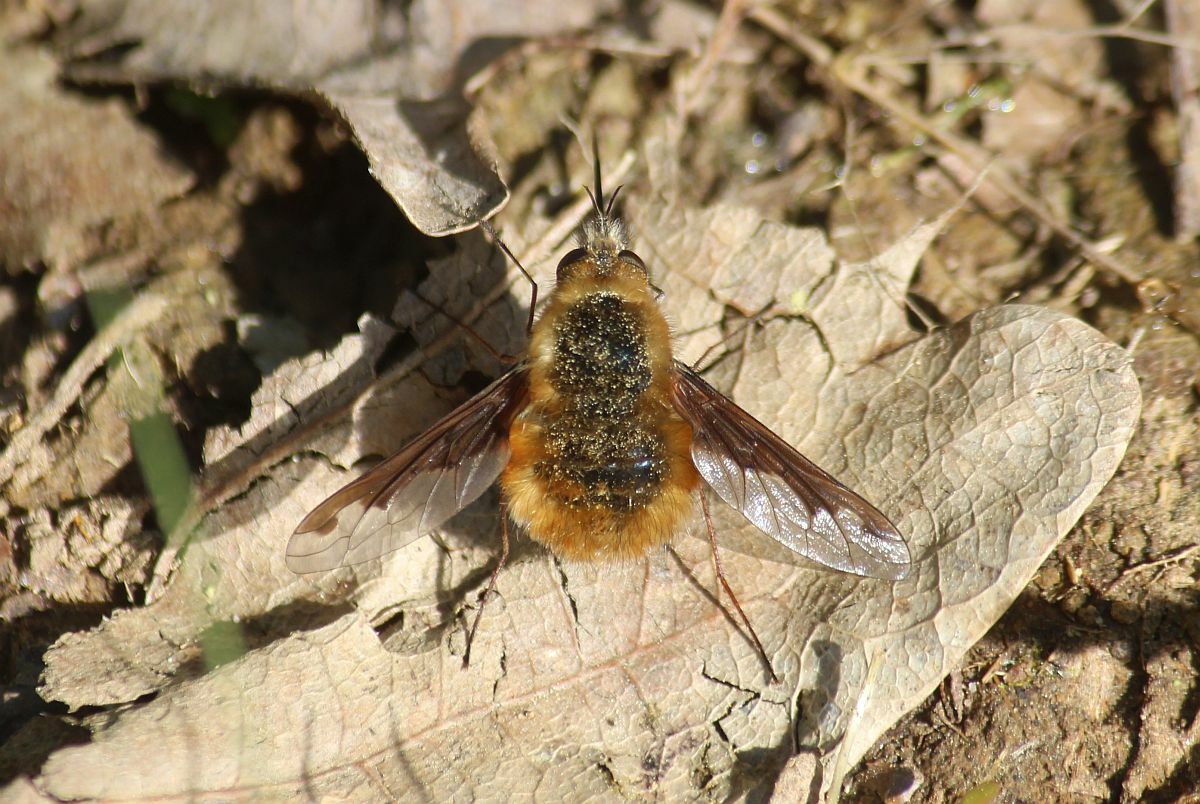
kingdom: Animalia
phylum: Arthropoda
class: Insecta
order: Diptera
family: Bombyliidae
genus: Bombylius
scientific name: Bombylius major
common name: Bee fly
